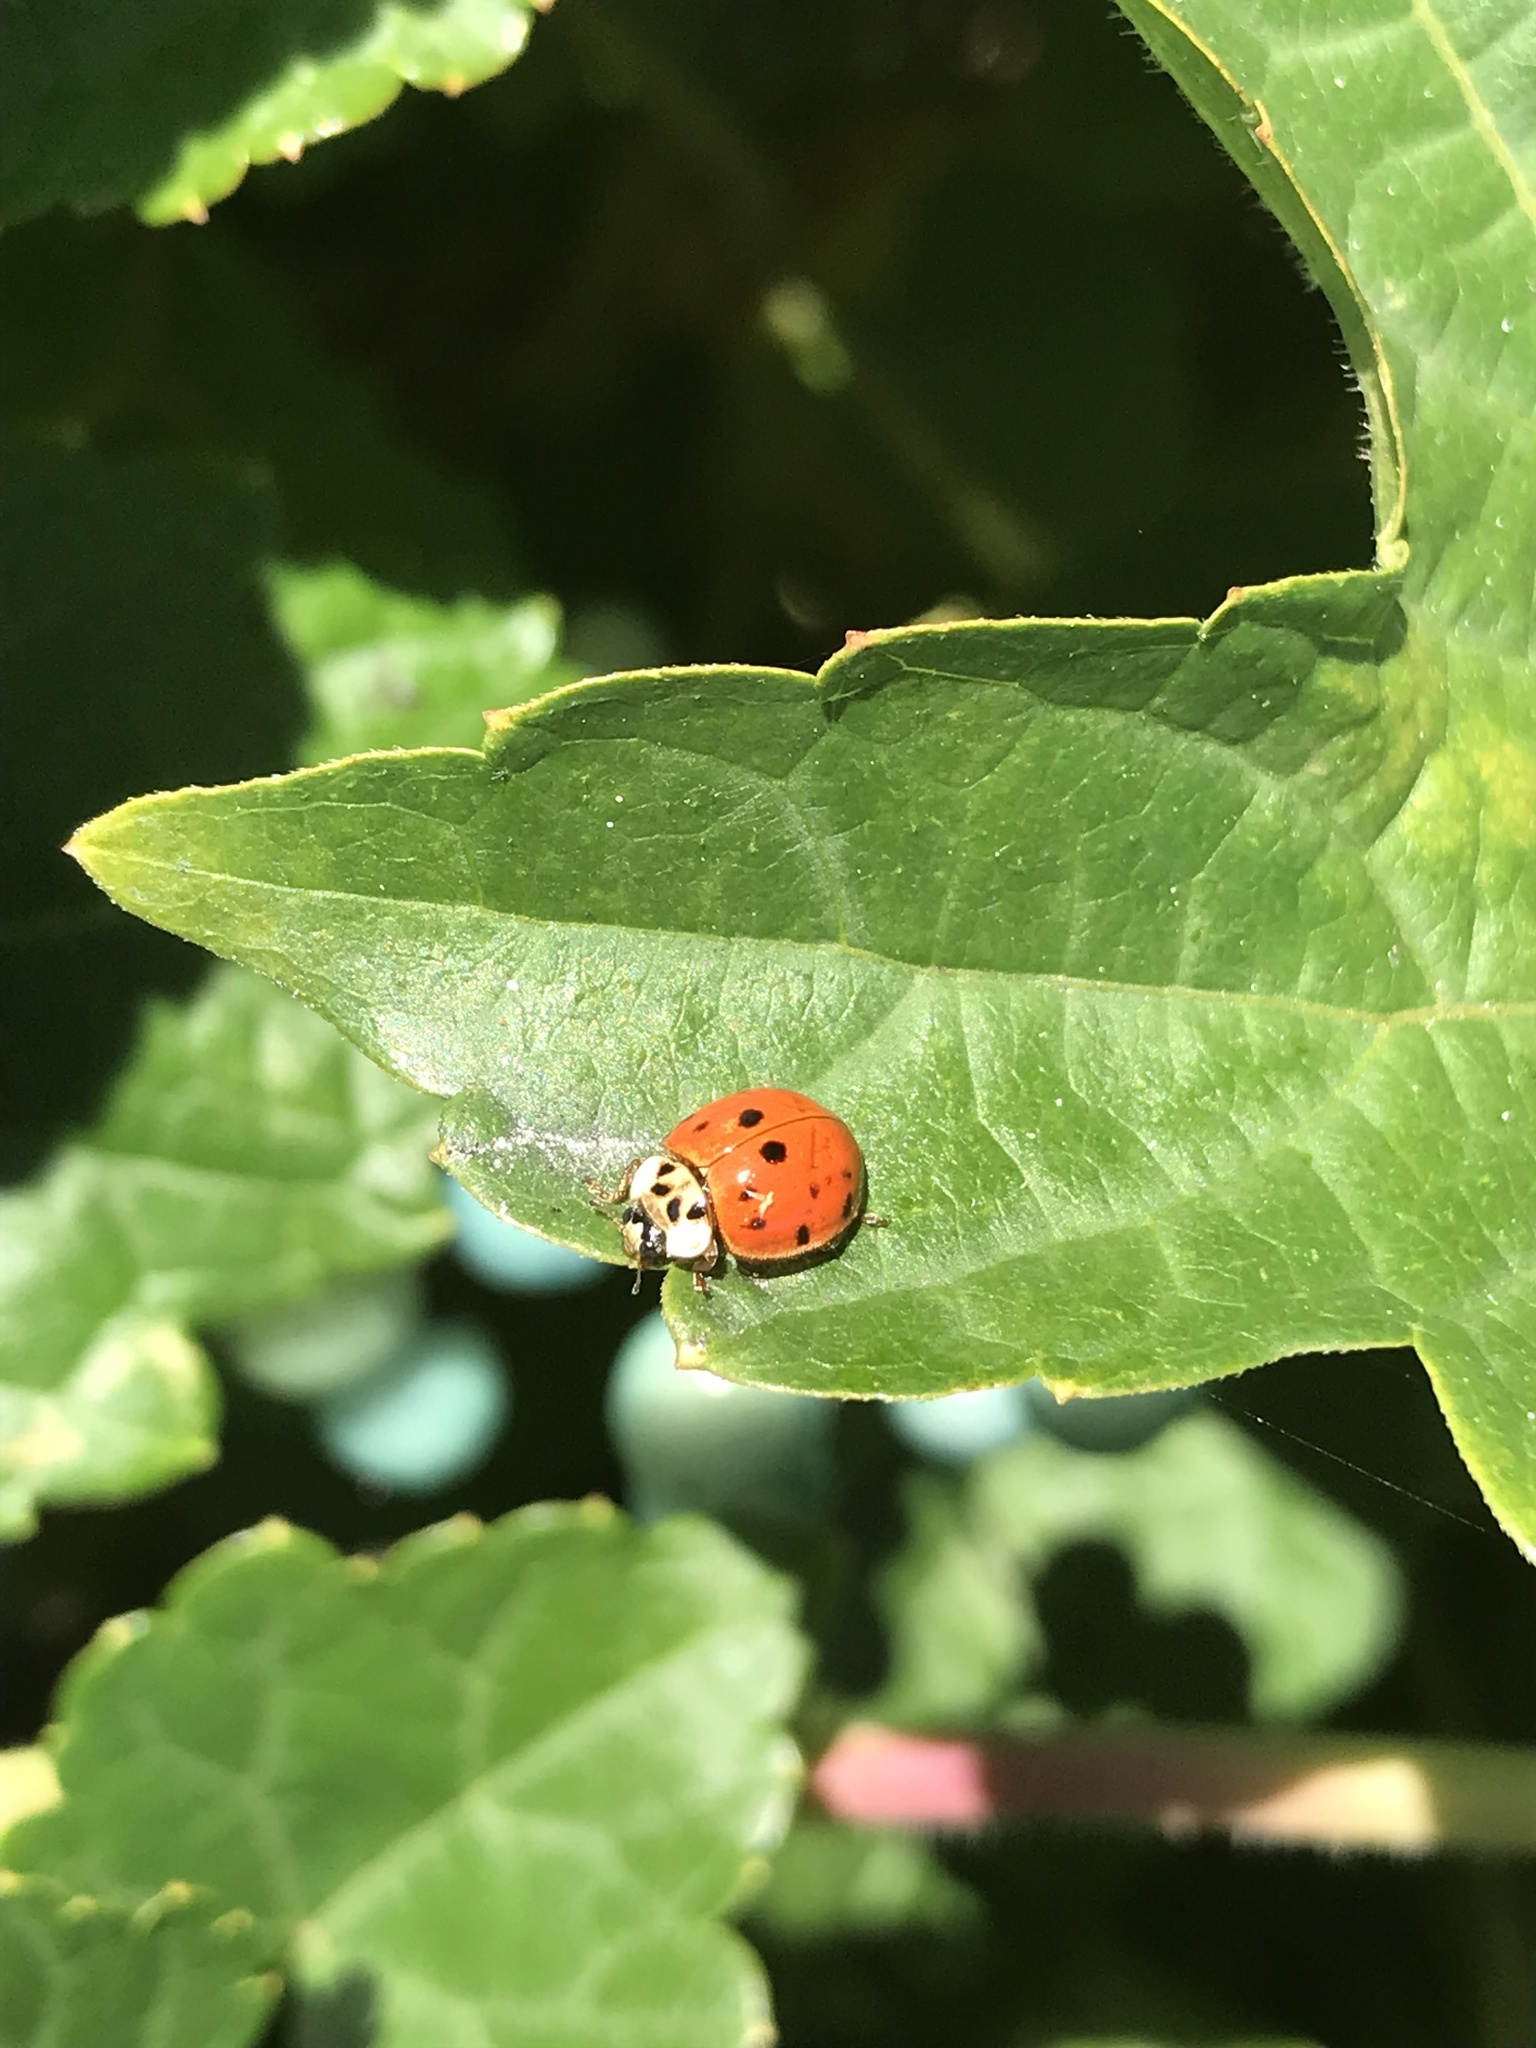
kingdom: Animalia
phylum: Arthropoda
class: Insecta
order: Coleoptera
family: Coccinellidae
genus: Harmonia
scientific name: Harmonia axyridis
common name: Harlequin ladybird
